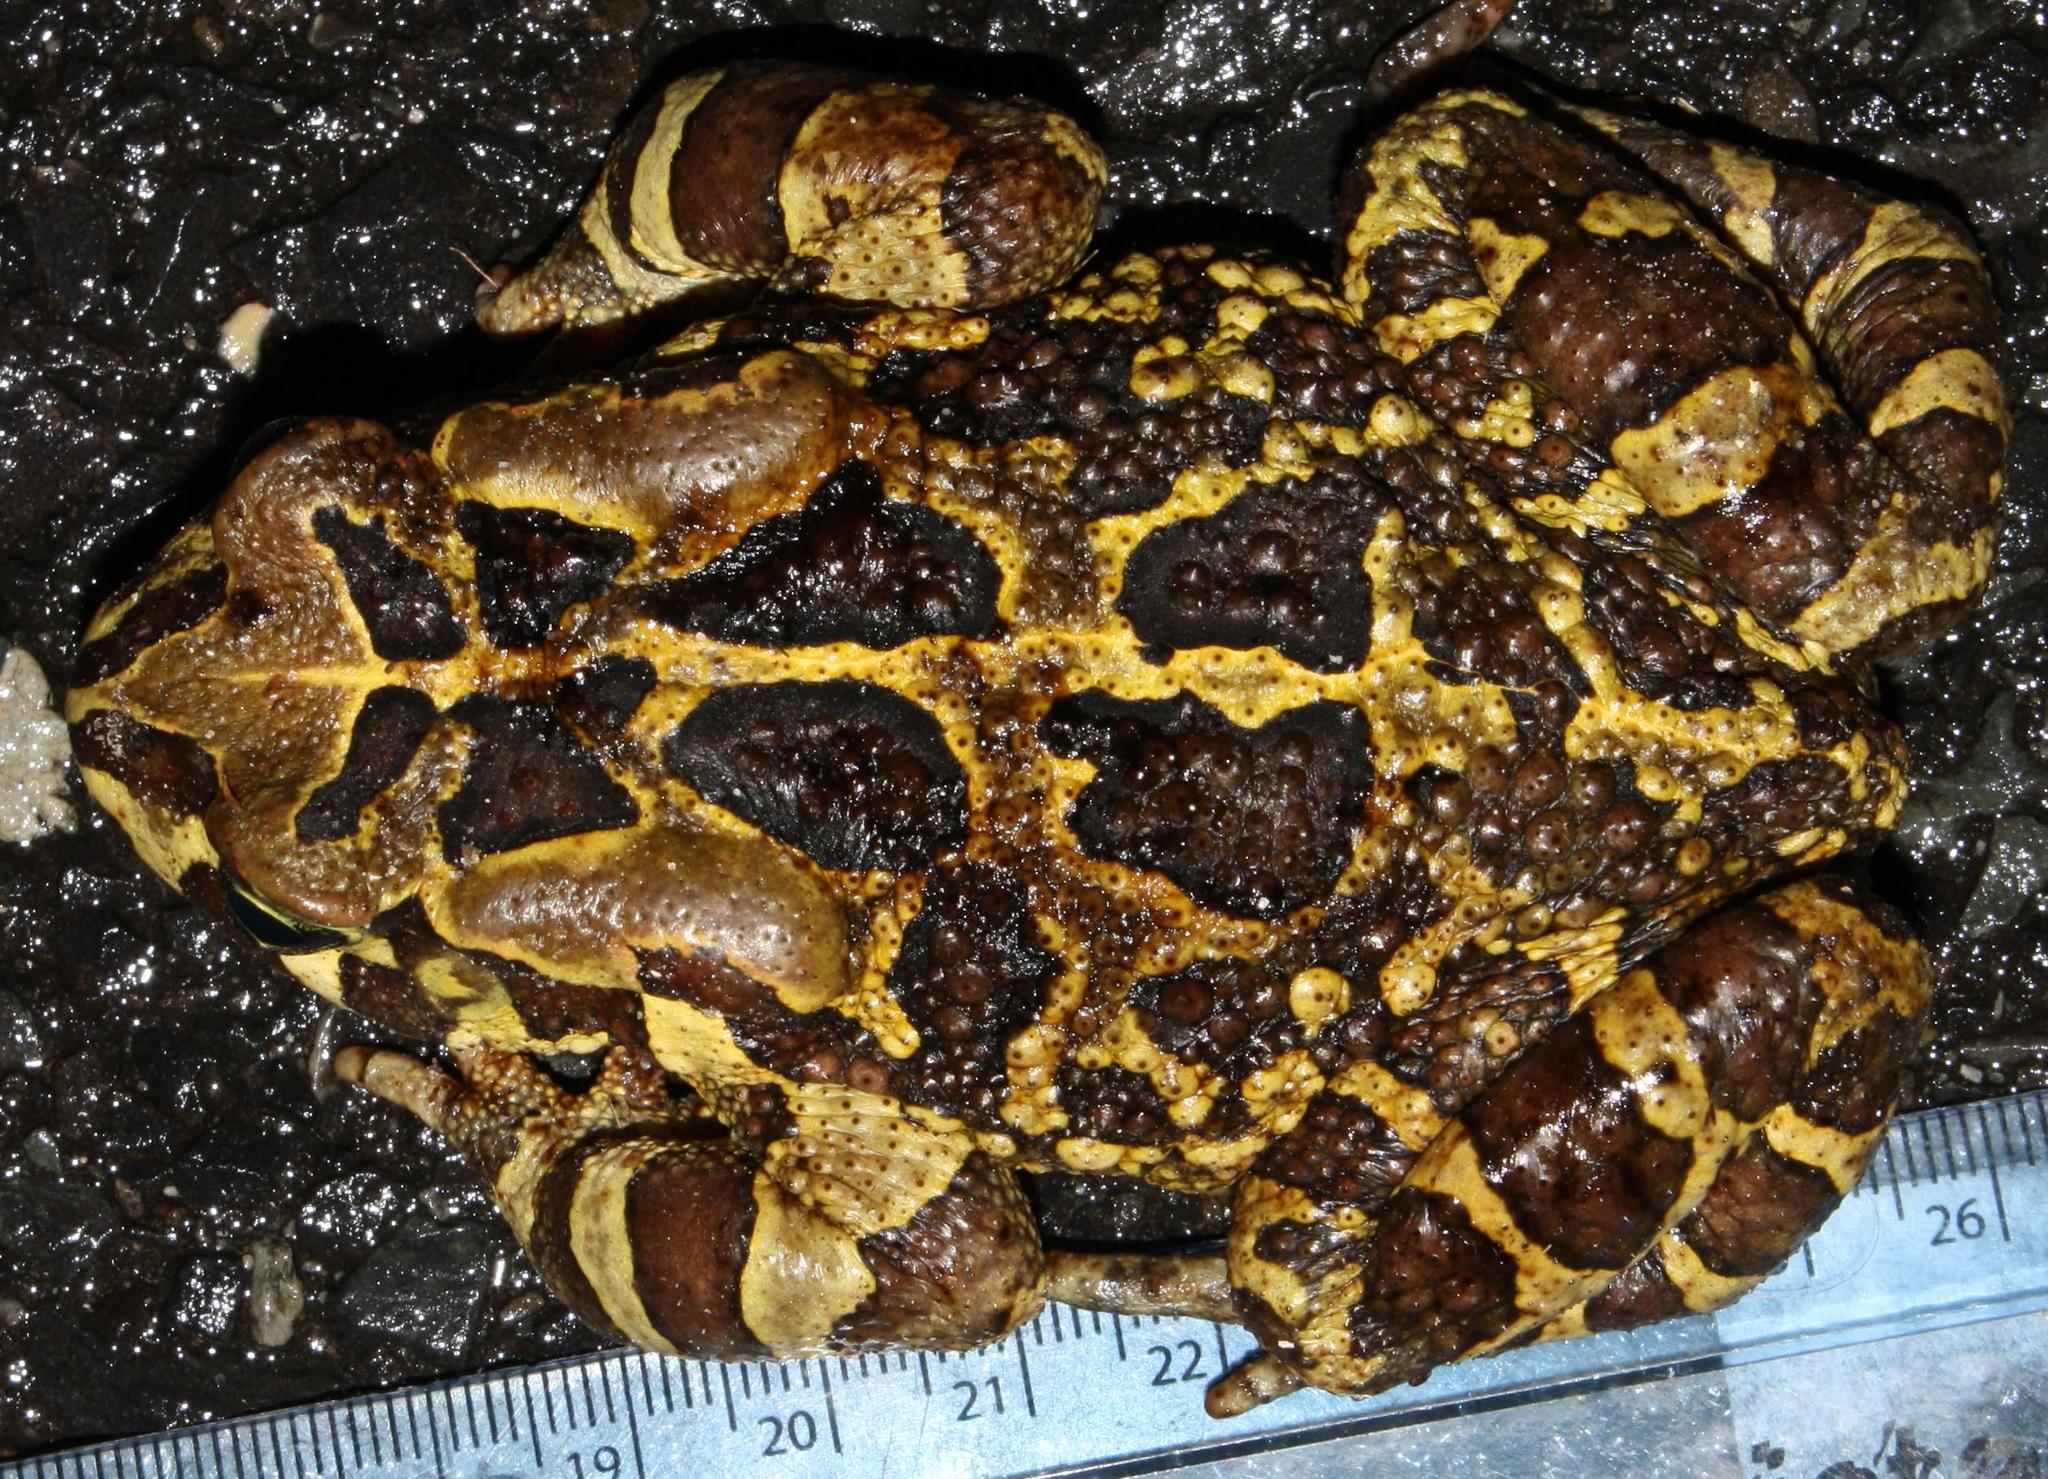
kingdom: Animalia
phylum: Chordata
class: Amphibia
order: Anura
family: Bufonidae
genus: Sclerophrys
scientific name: Sclerophrys pantherina
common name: Panther toad
